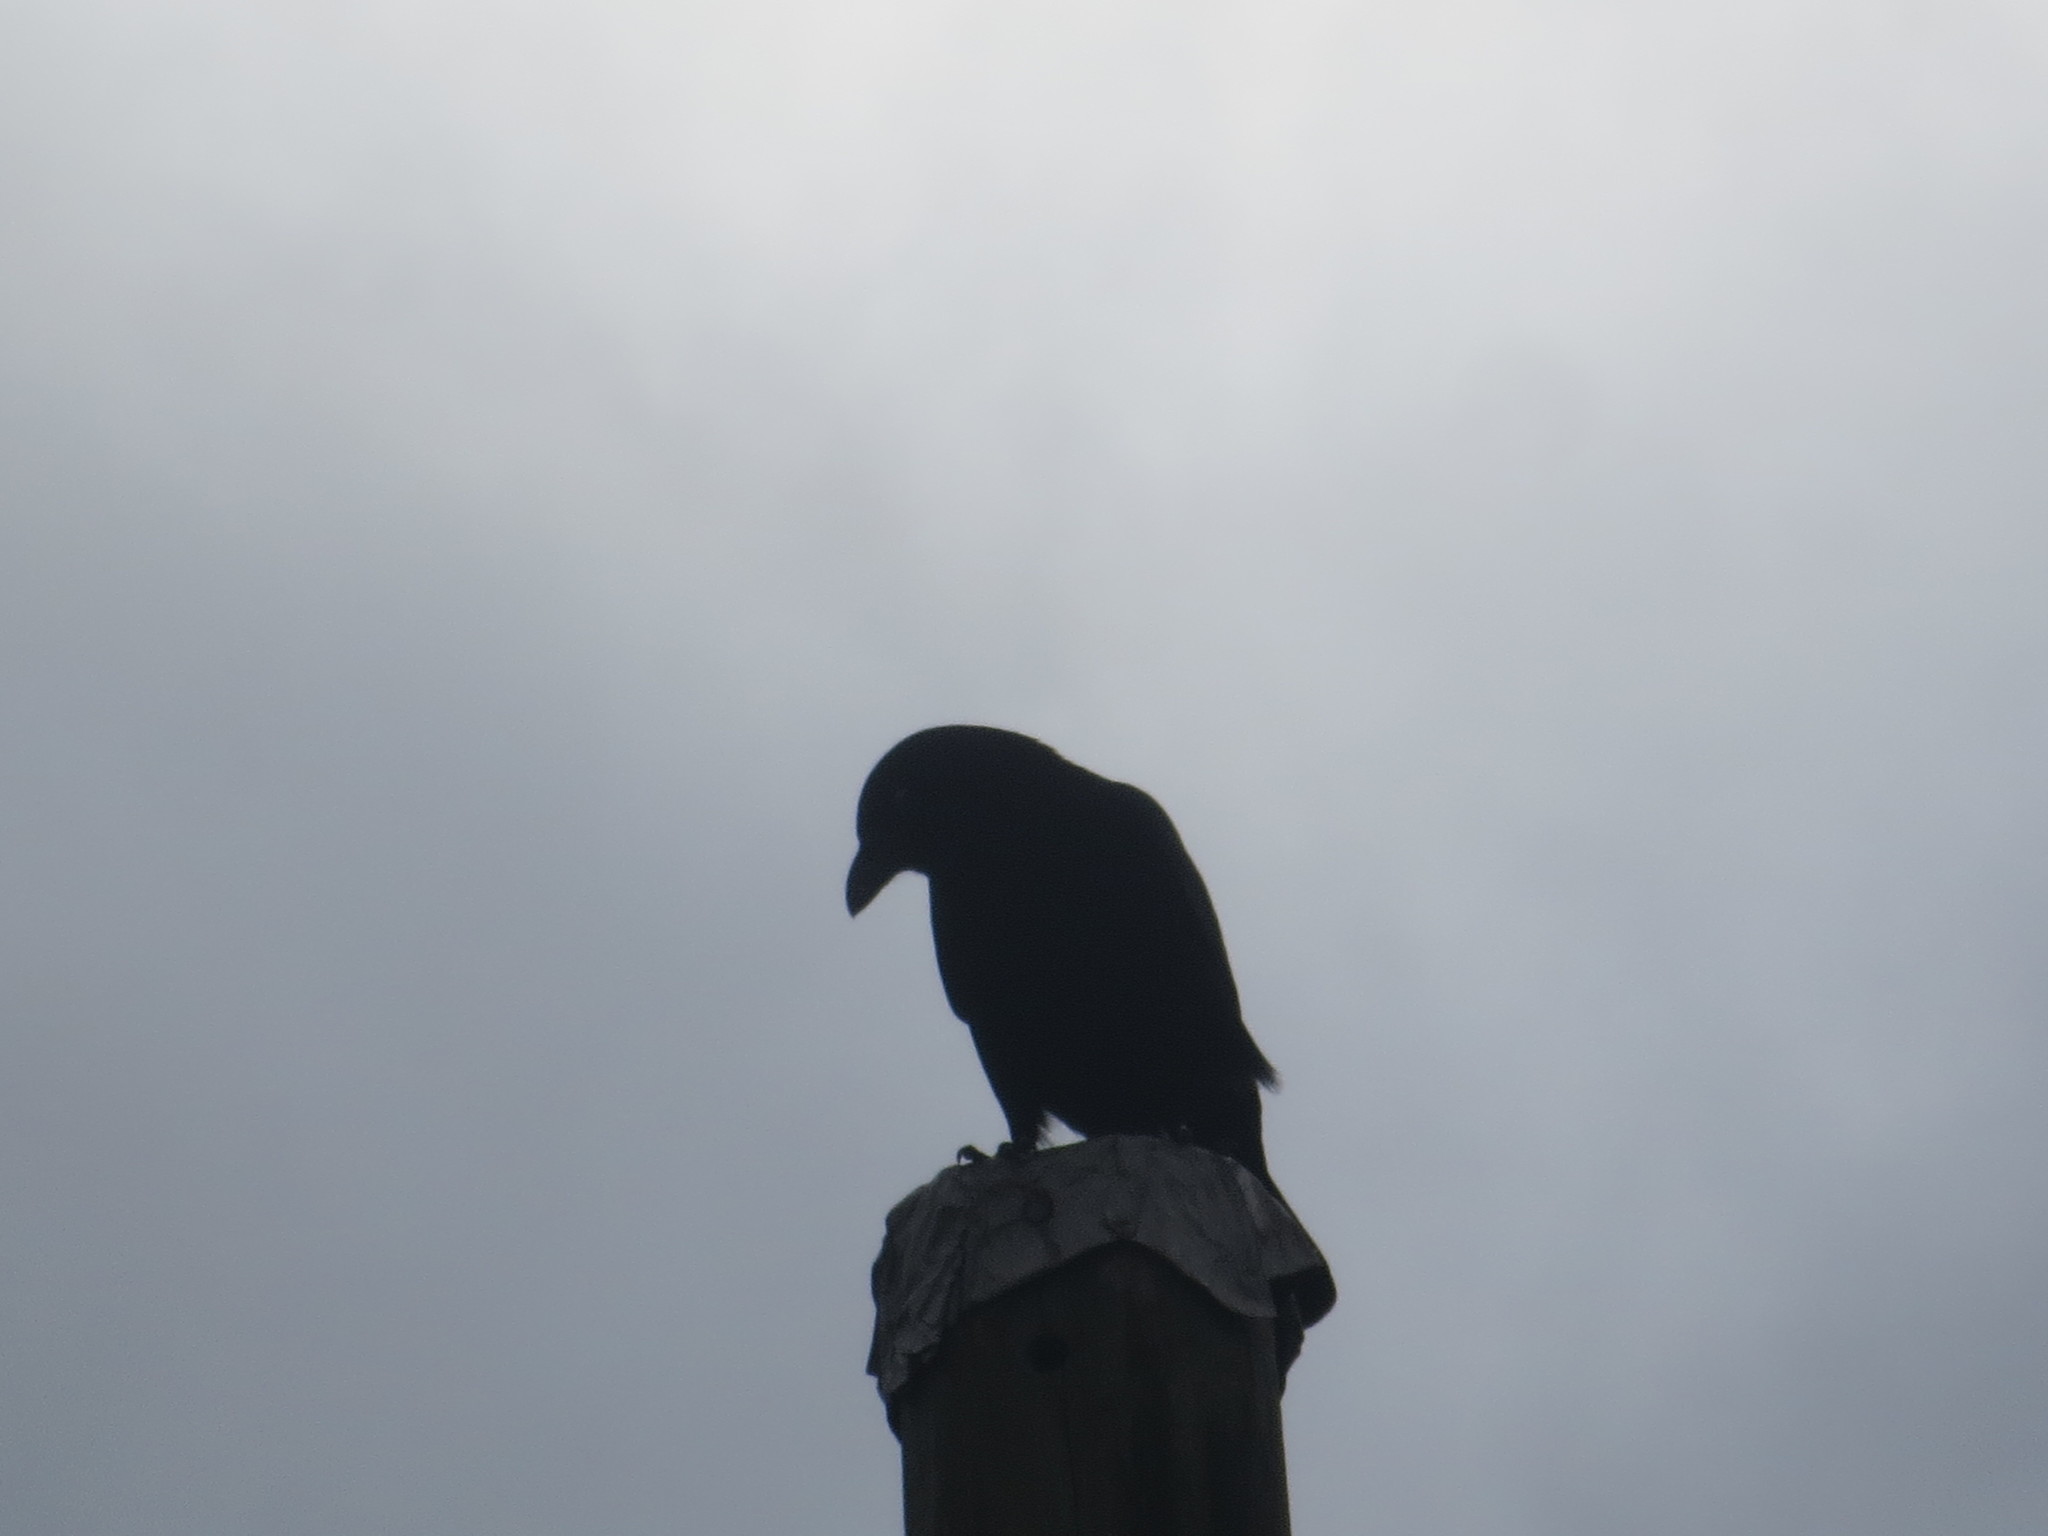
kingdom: Animalia
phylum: Chordata
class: Aves
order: Passeriformes
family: Corvidae
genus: Corvus
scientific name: Corvus brachyrhynchos
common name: American crow
